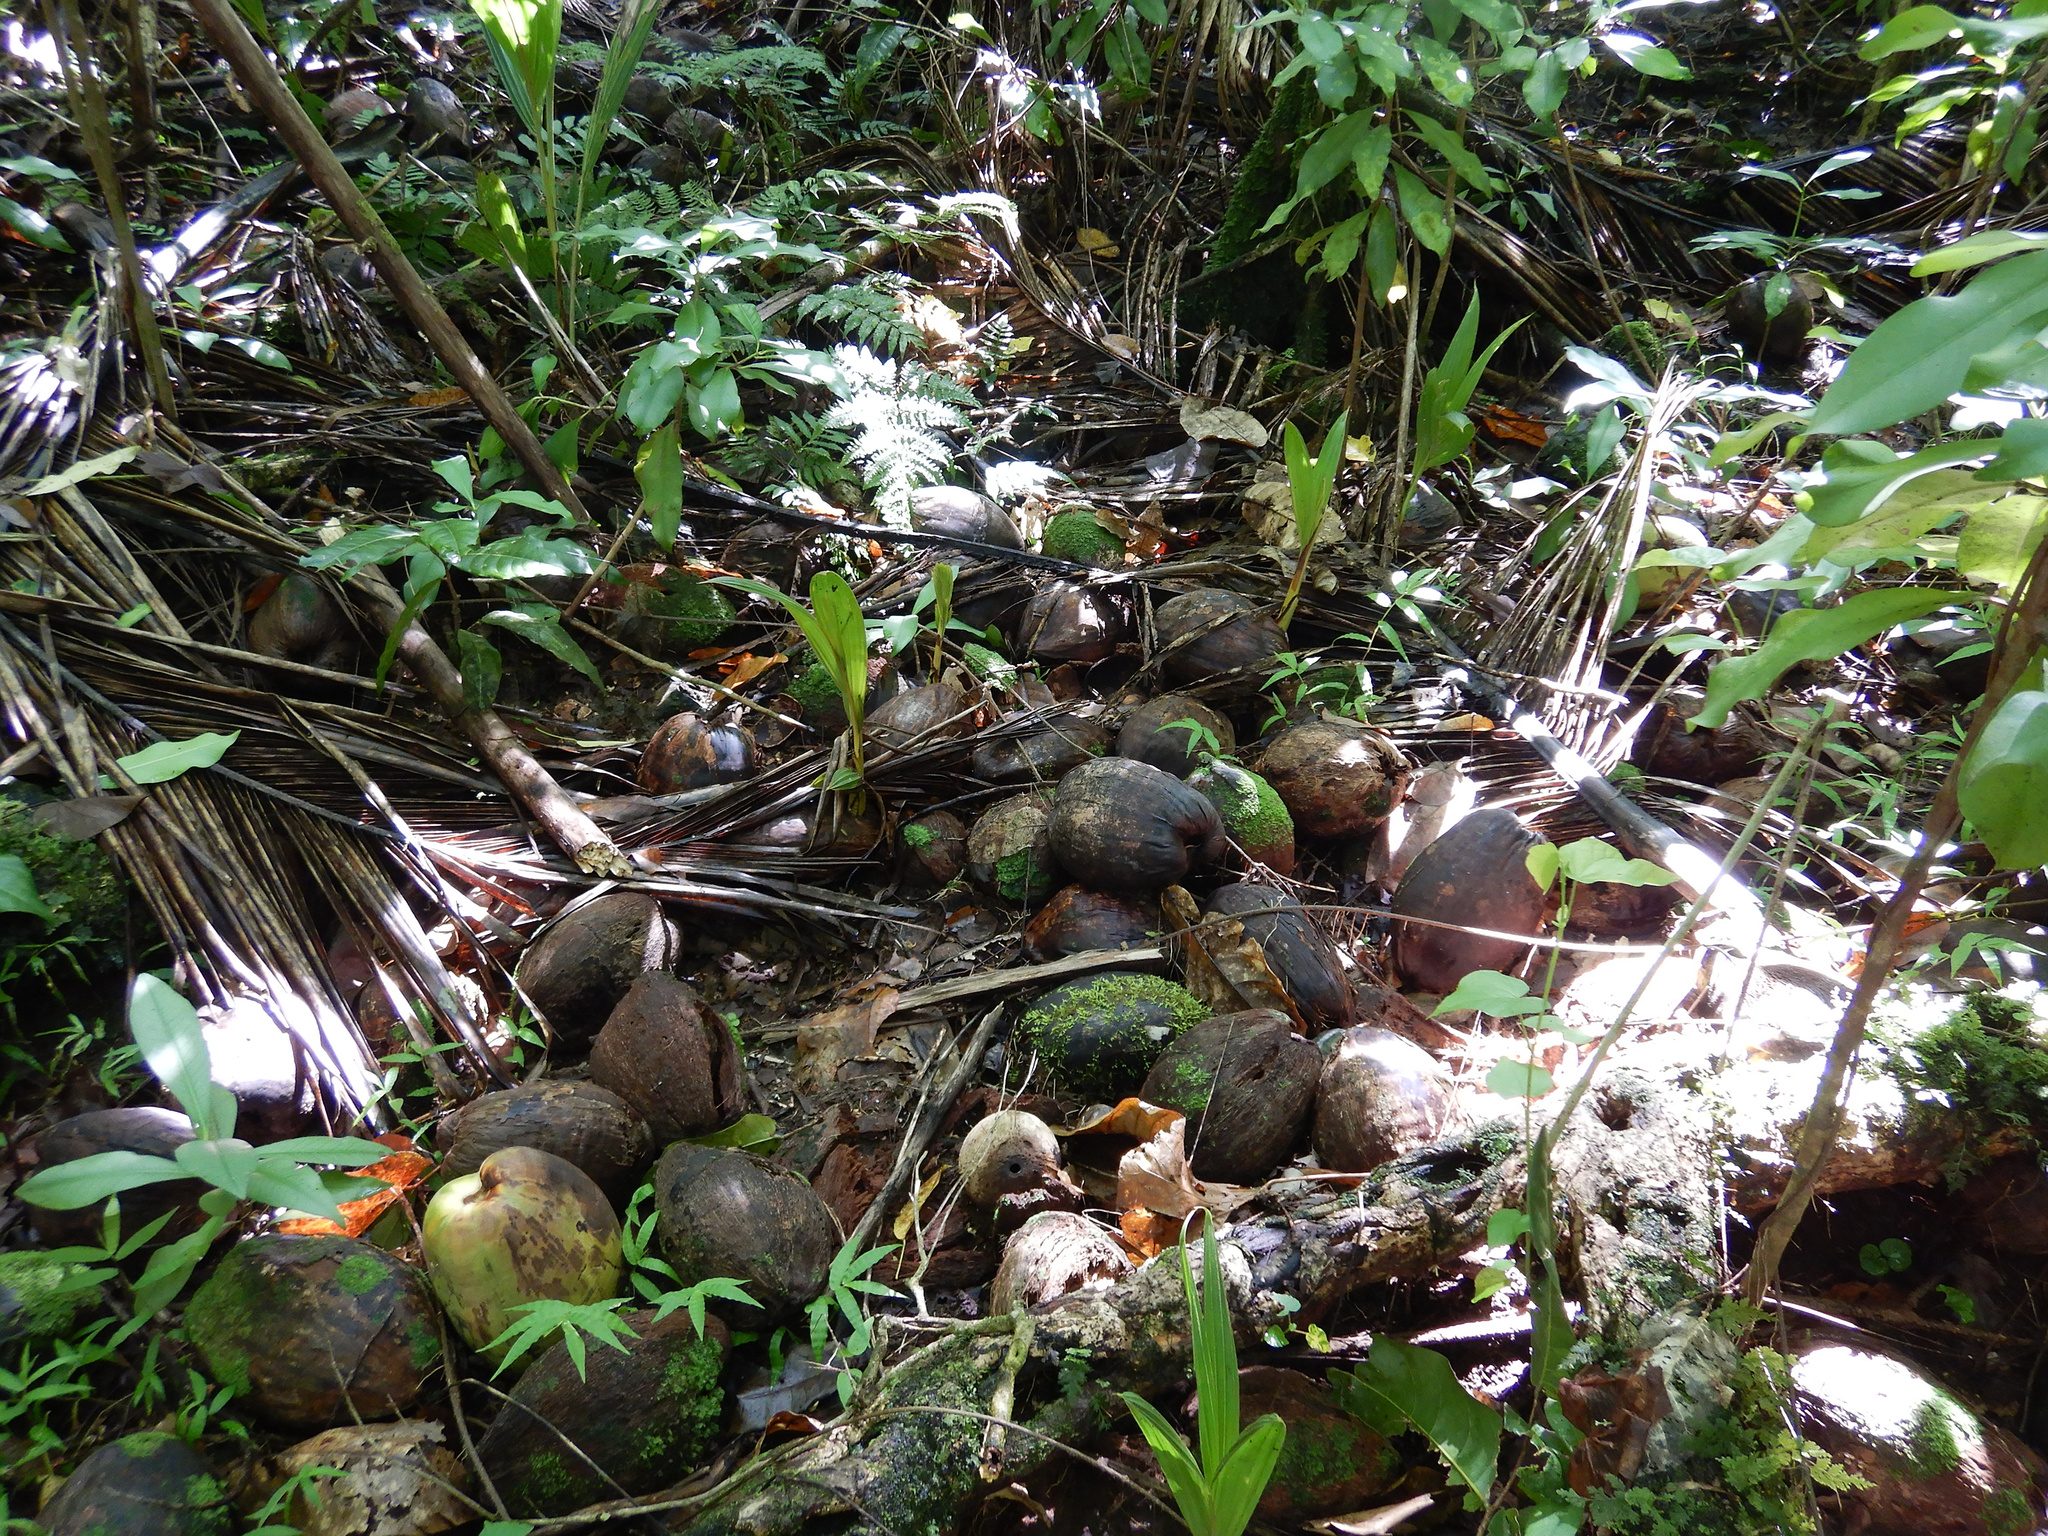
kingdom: Plantae
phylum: Tracheophyta
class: Liliopsida
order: Arecales
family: Arecaceae
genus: Cocos
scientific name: Cocos nucifera
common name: Coconut palm
